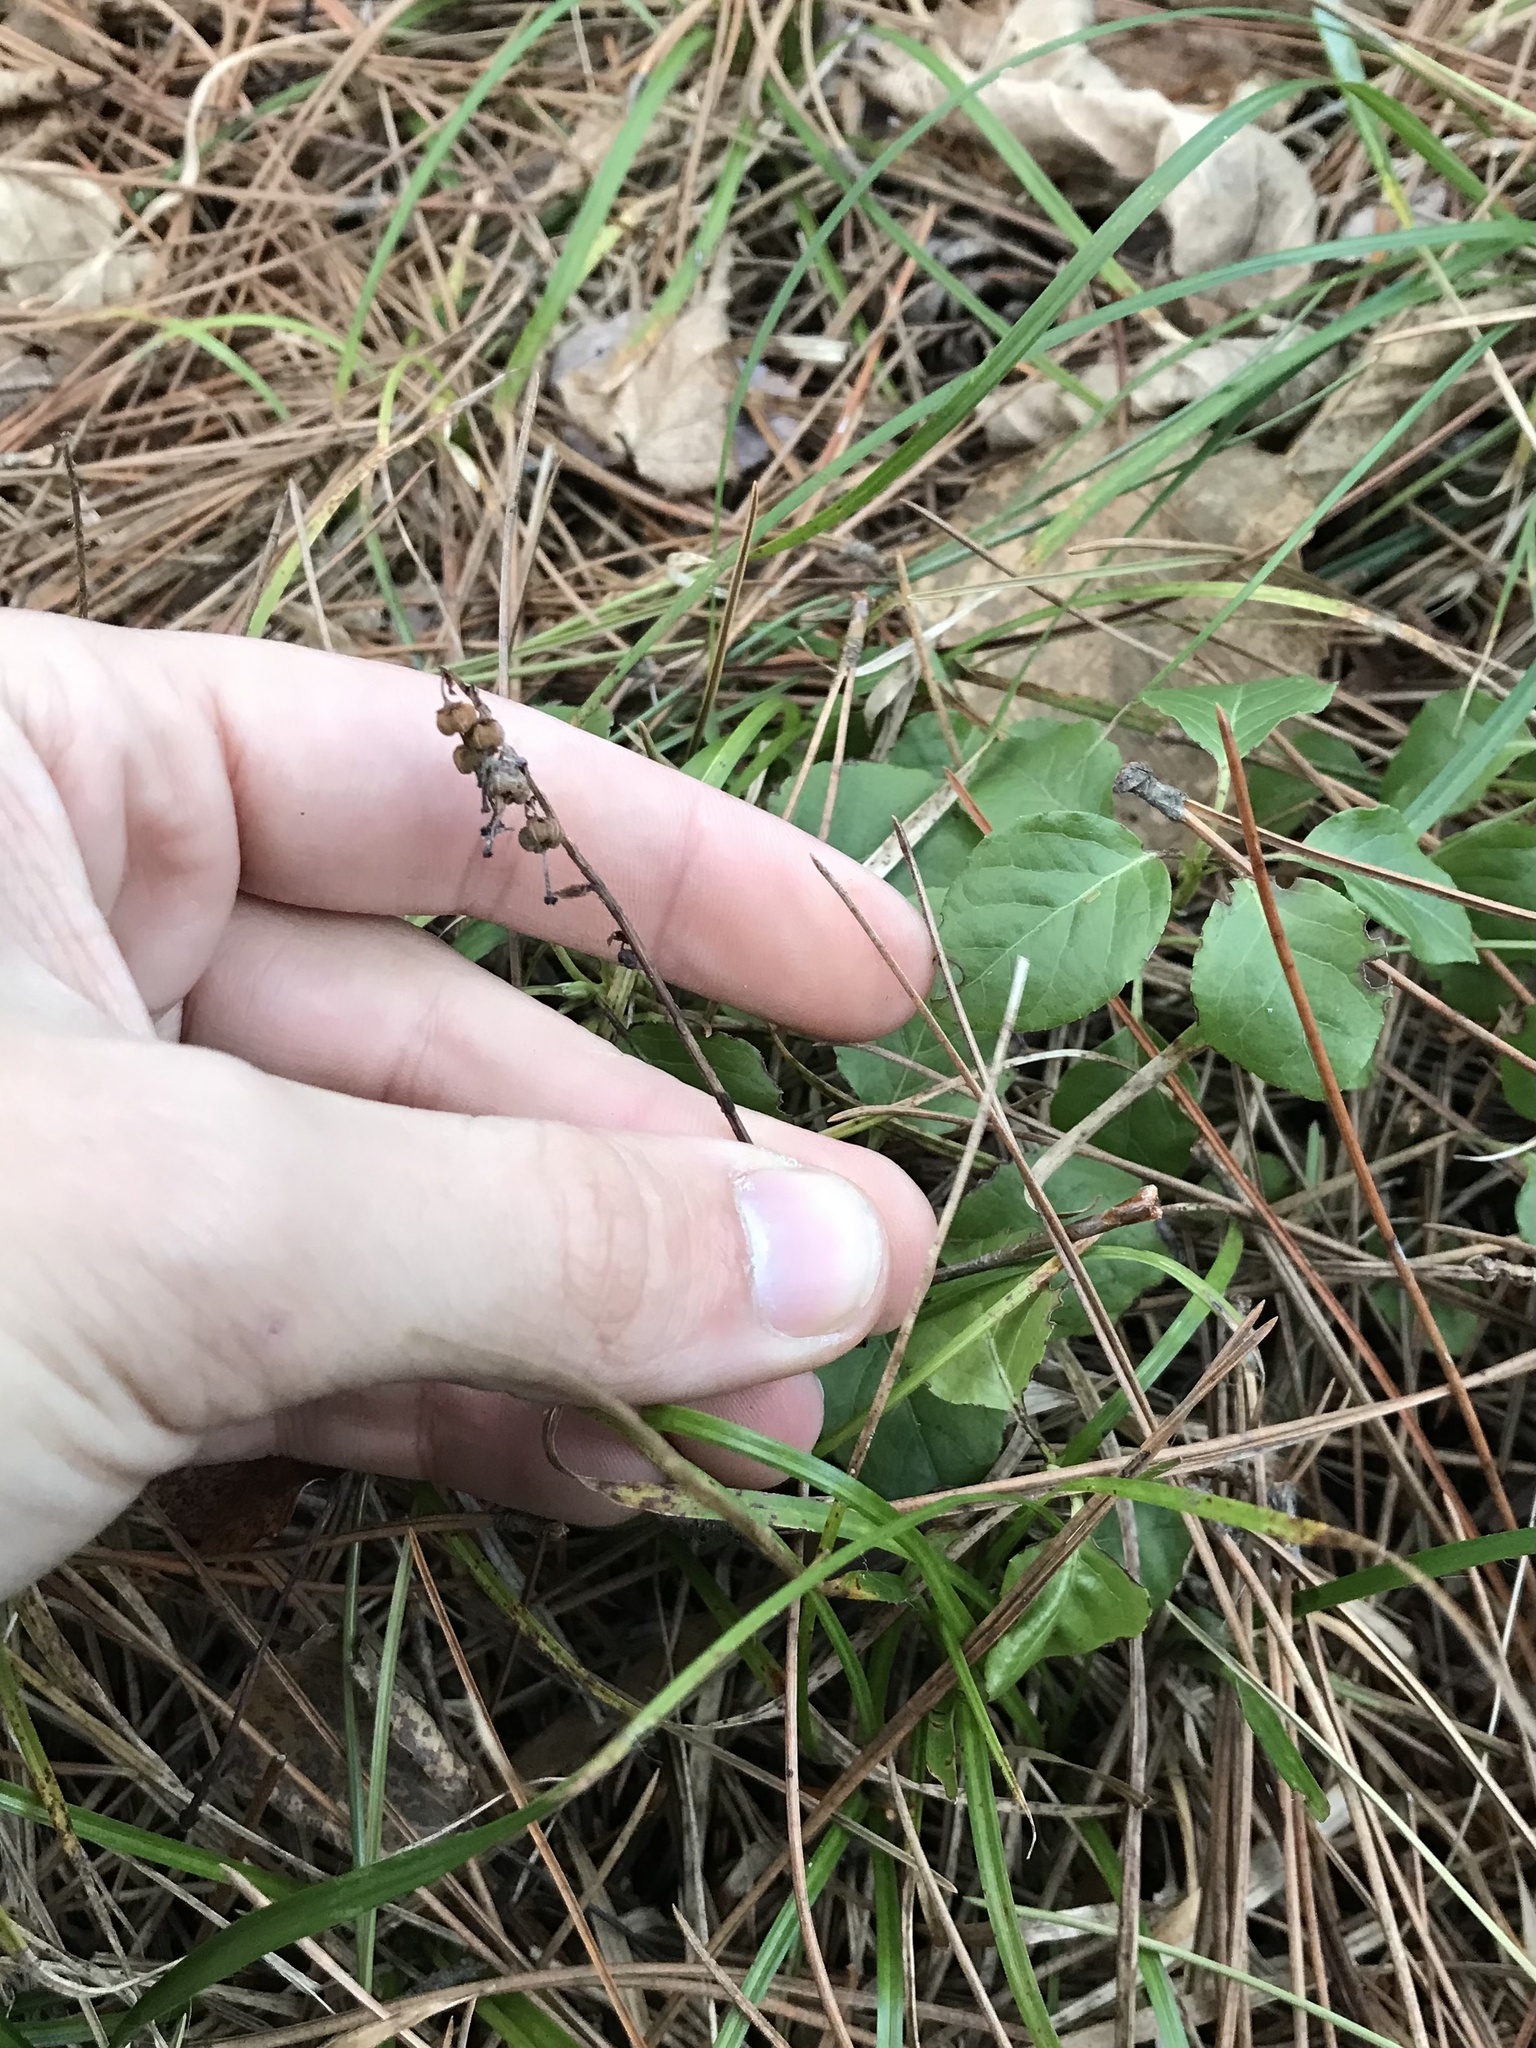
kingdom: Plantae
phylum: Tracheophyta
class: Magnoliopsida
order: Ericales
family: Ericaceae
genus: Orthilia
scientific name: Orthilia secunda
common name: One-sided orthilia
